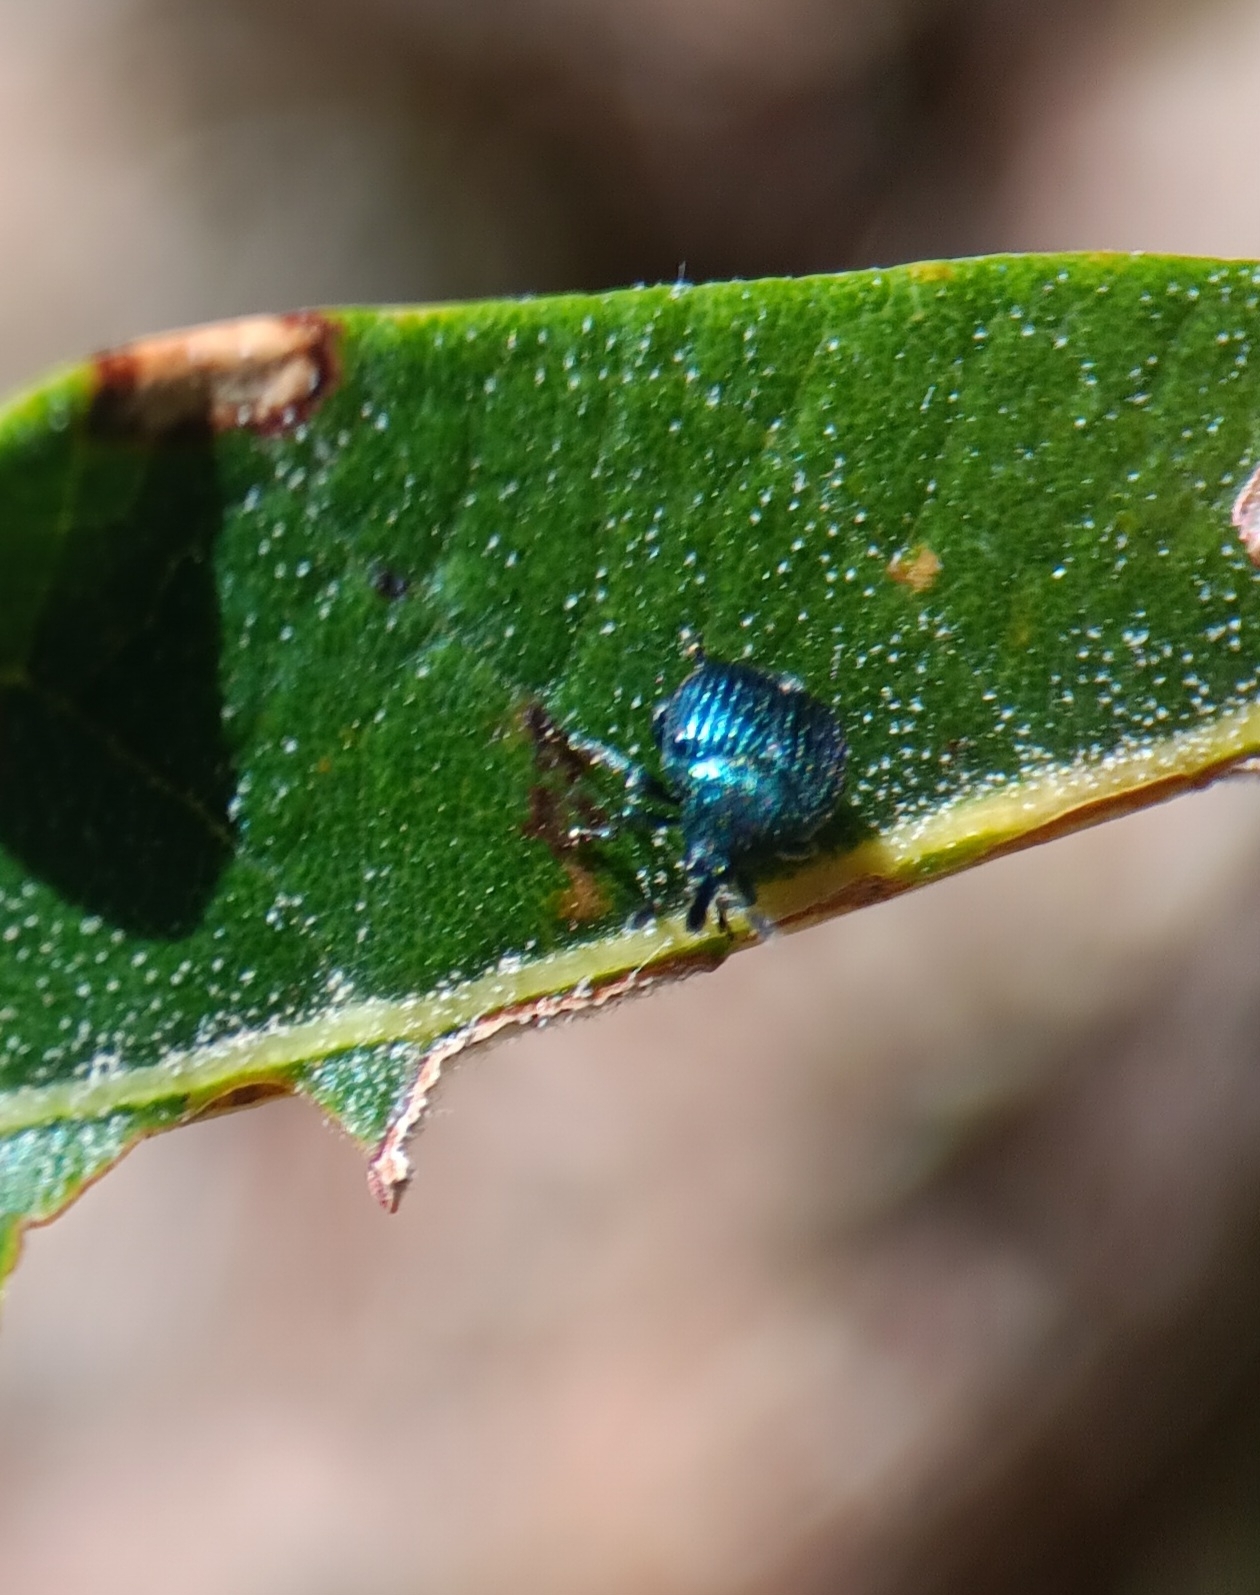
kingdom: Animalia
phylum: Arthropoda
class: Insecta
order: Coleoptera
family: Attelabidae
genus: Pterocolus
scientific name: Pterocolus ovatus
